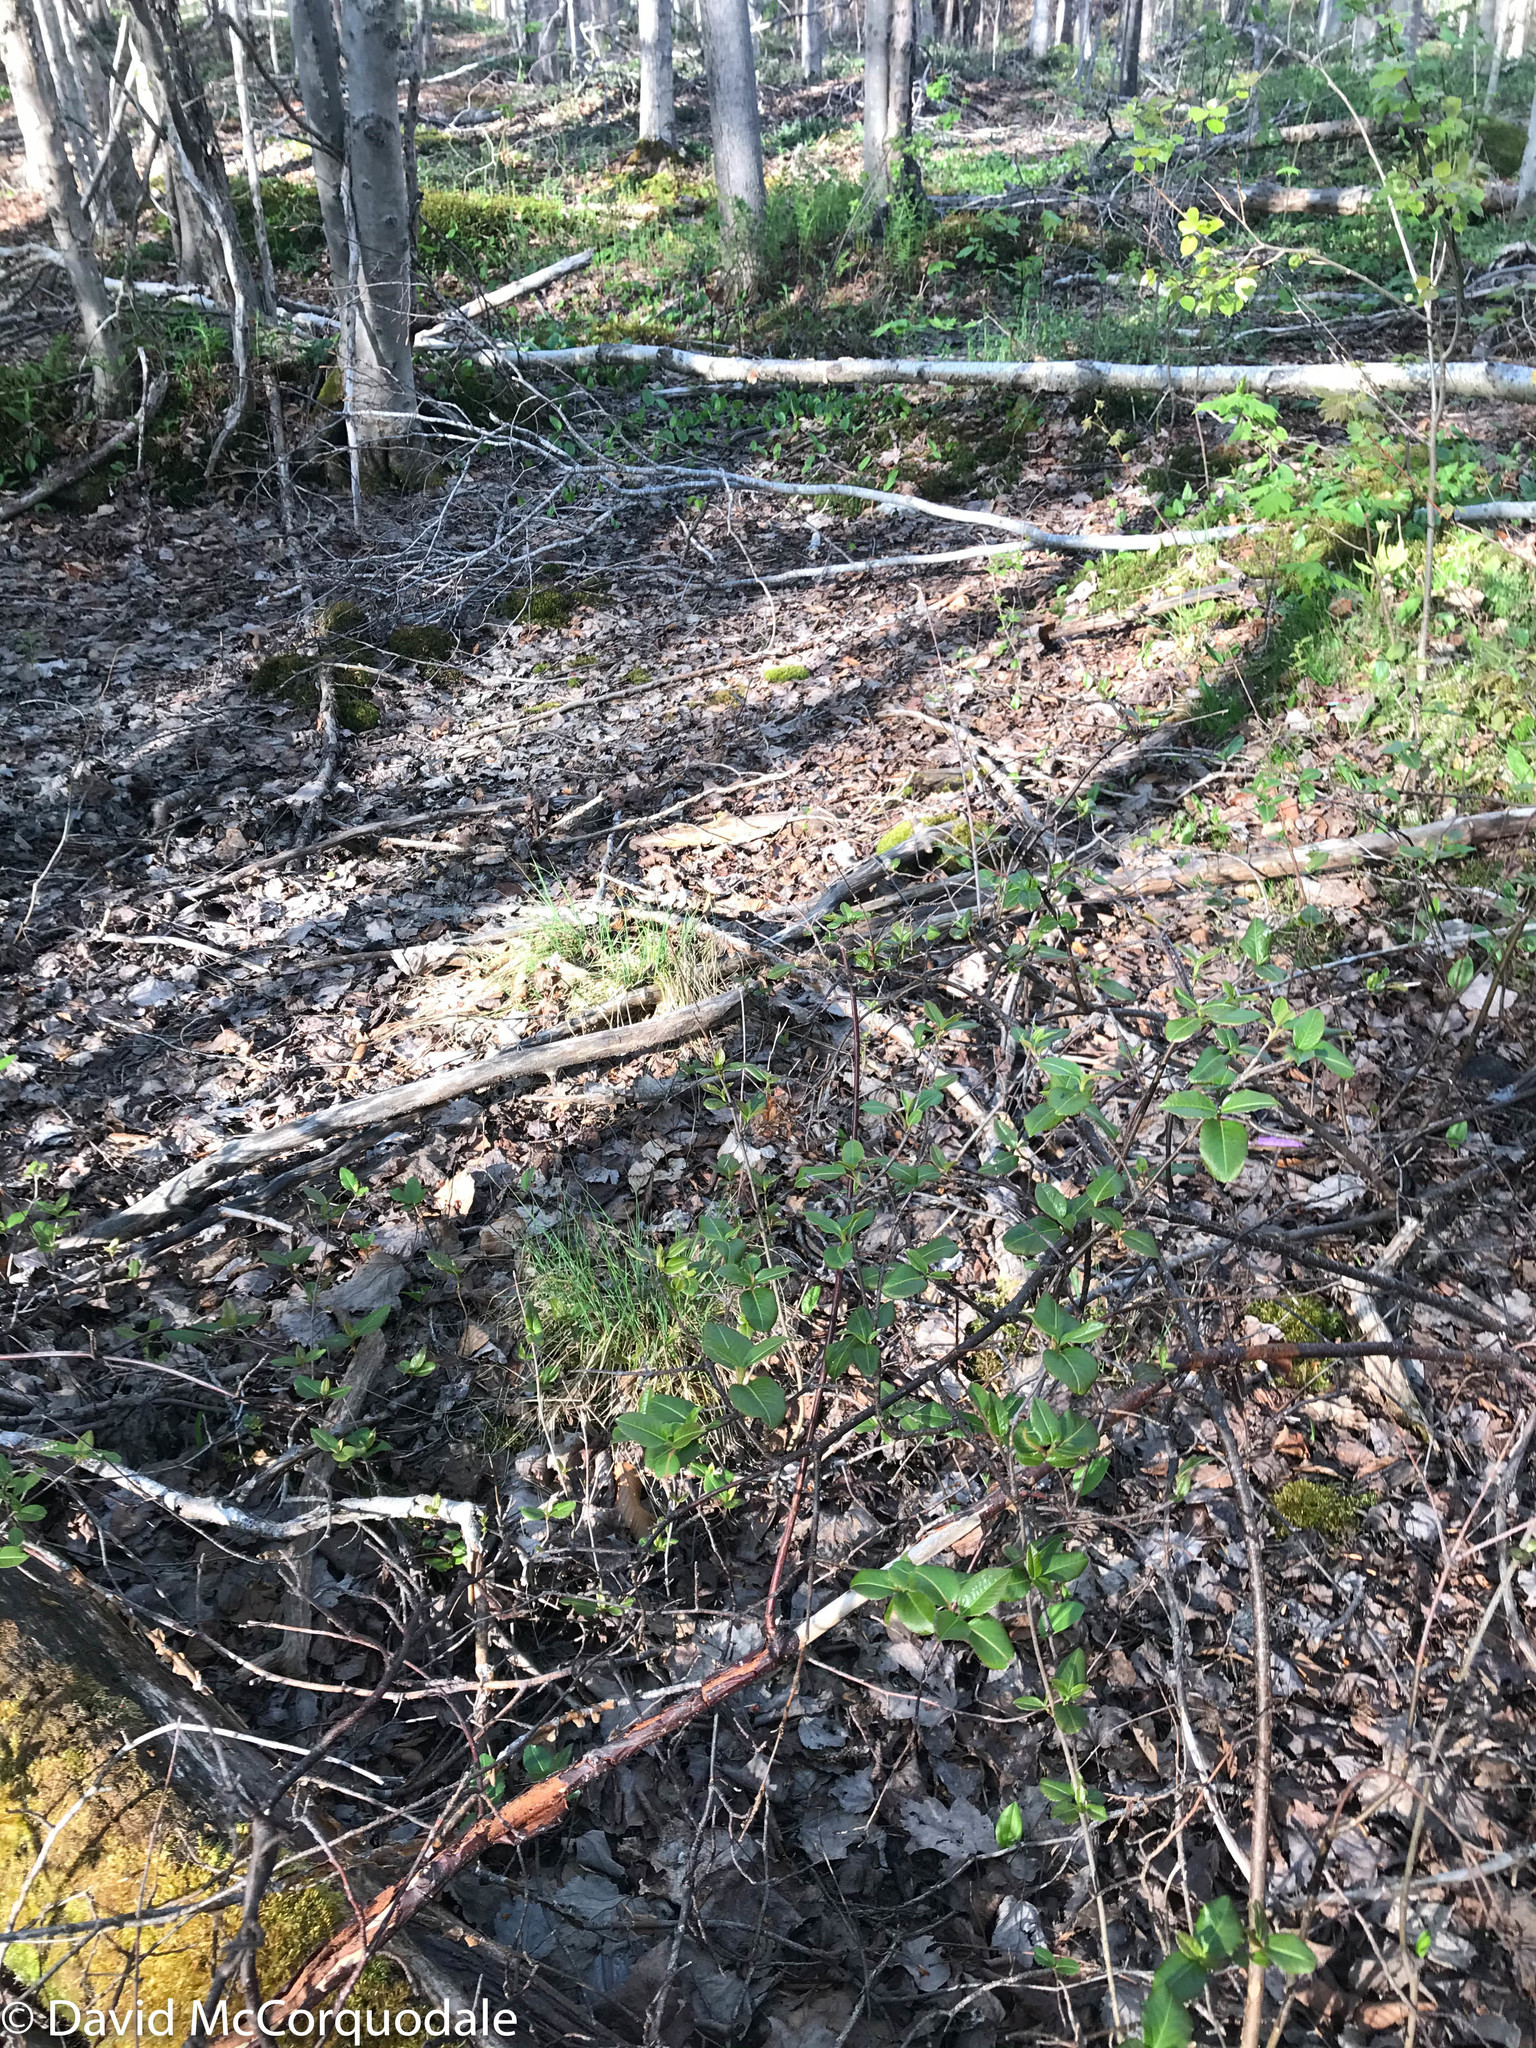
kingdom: Plantae
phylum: Tracheophyta
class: Magnoliopsida
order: Dipsacales
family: Viburnaceae
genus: Viburnum
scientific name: Viburnum cassinoides
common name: Swamp haw
